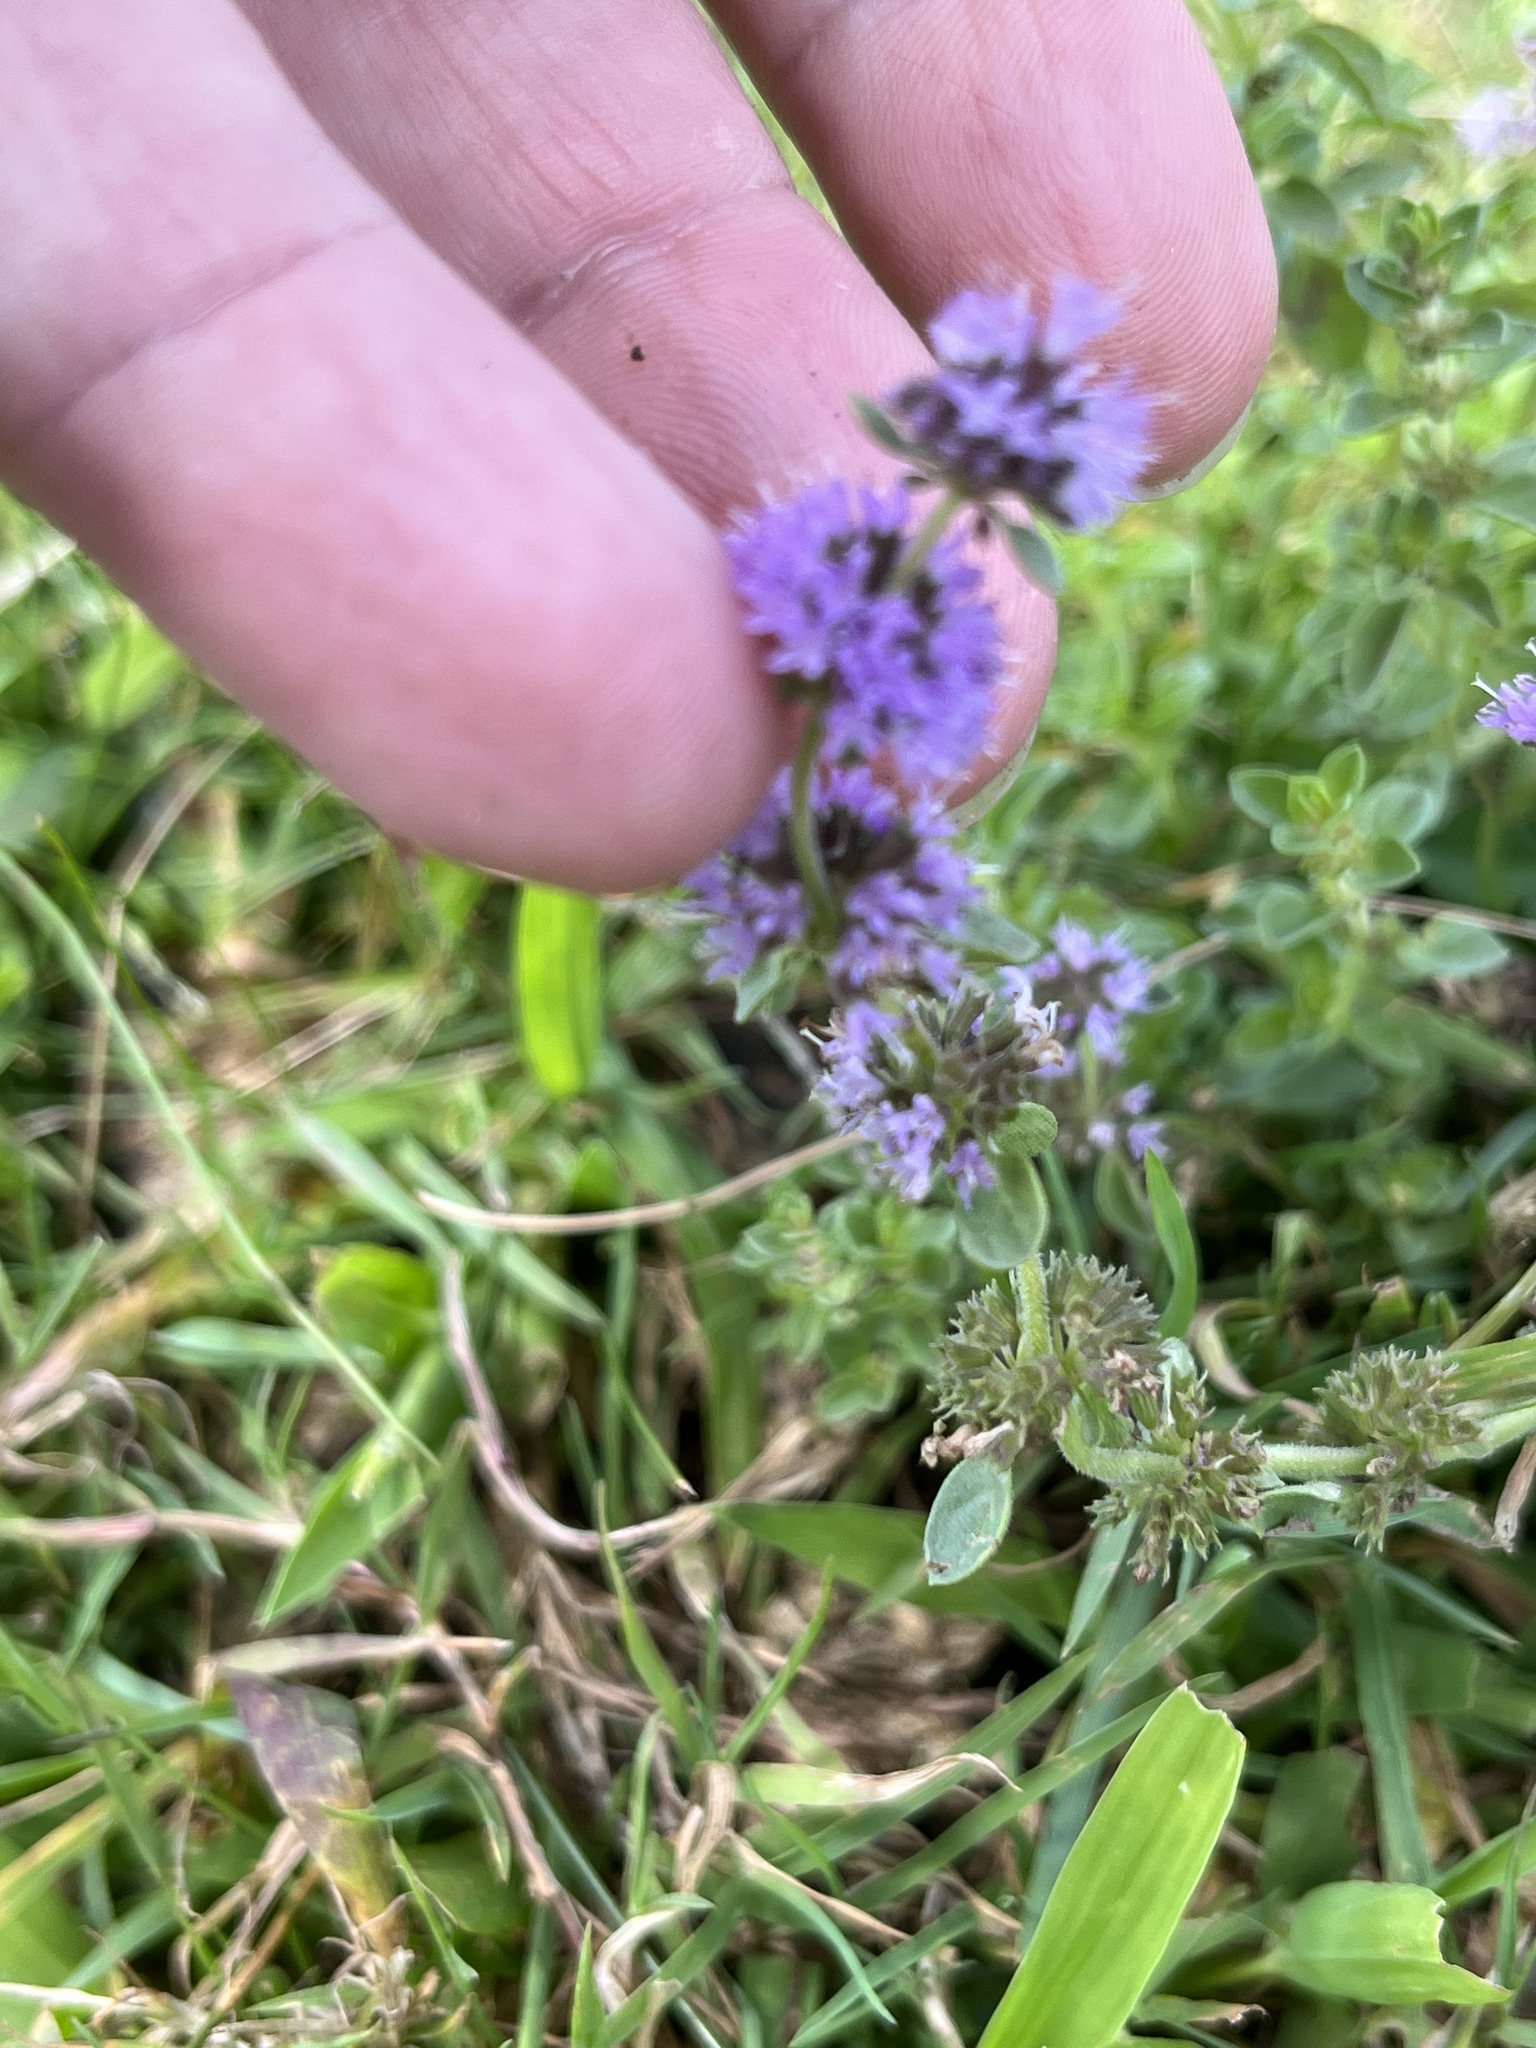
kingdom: Plantae
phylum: Tracheophyta
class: Magnoliopsida
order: Lamiales
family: Lamiaceae
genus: Mentha
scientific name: Mentha arvensis
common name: Corn mint
